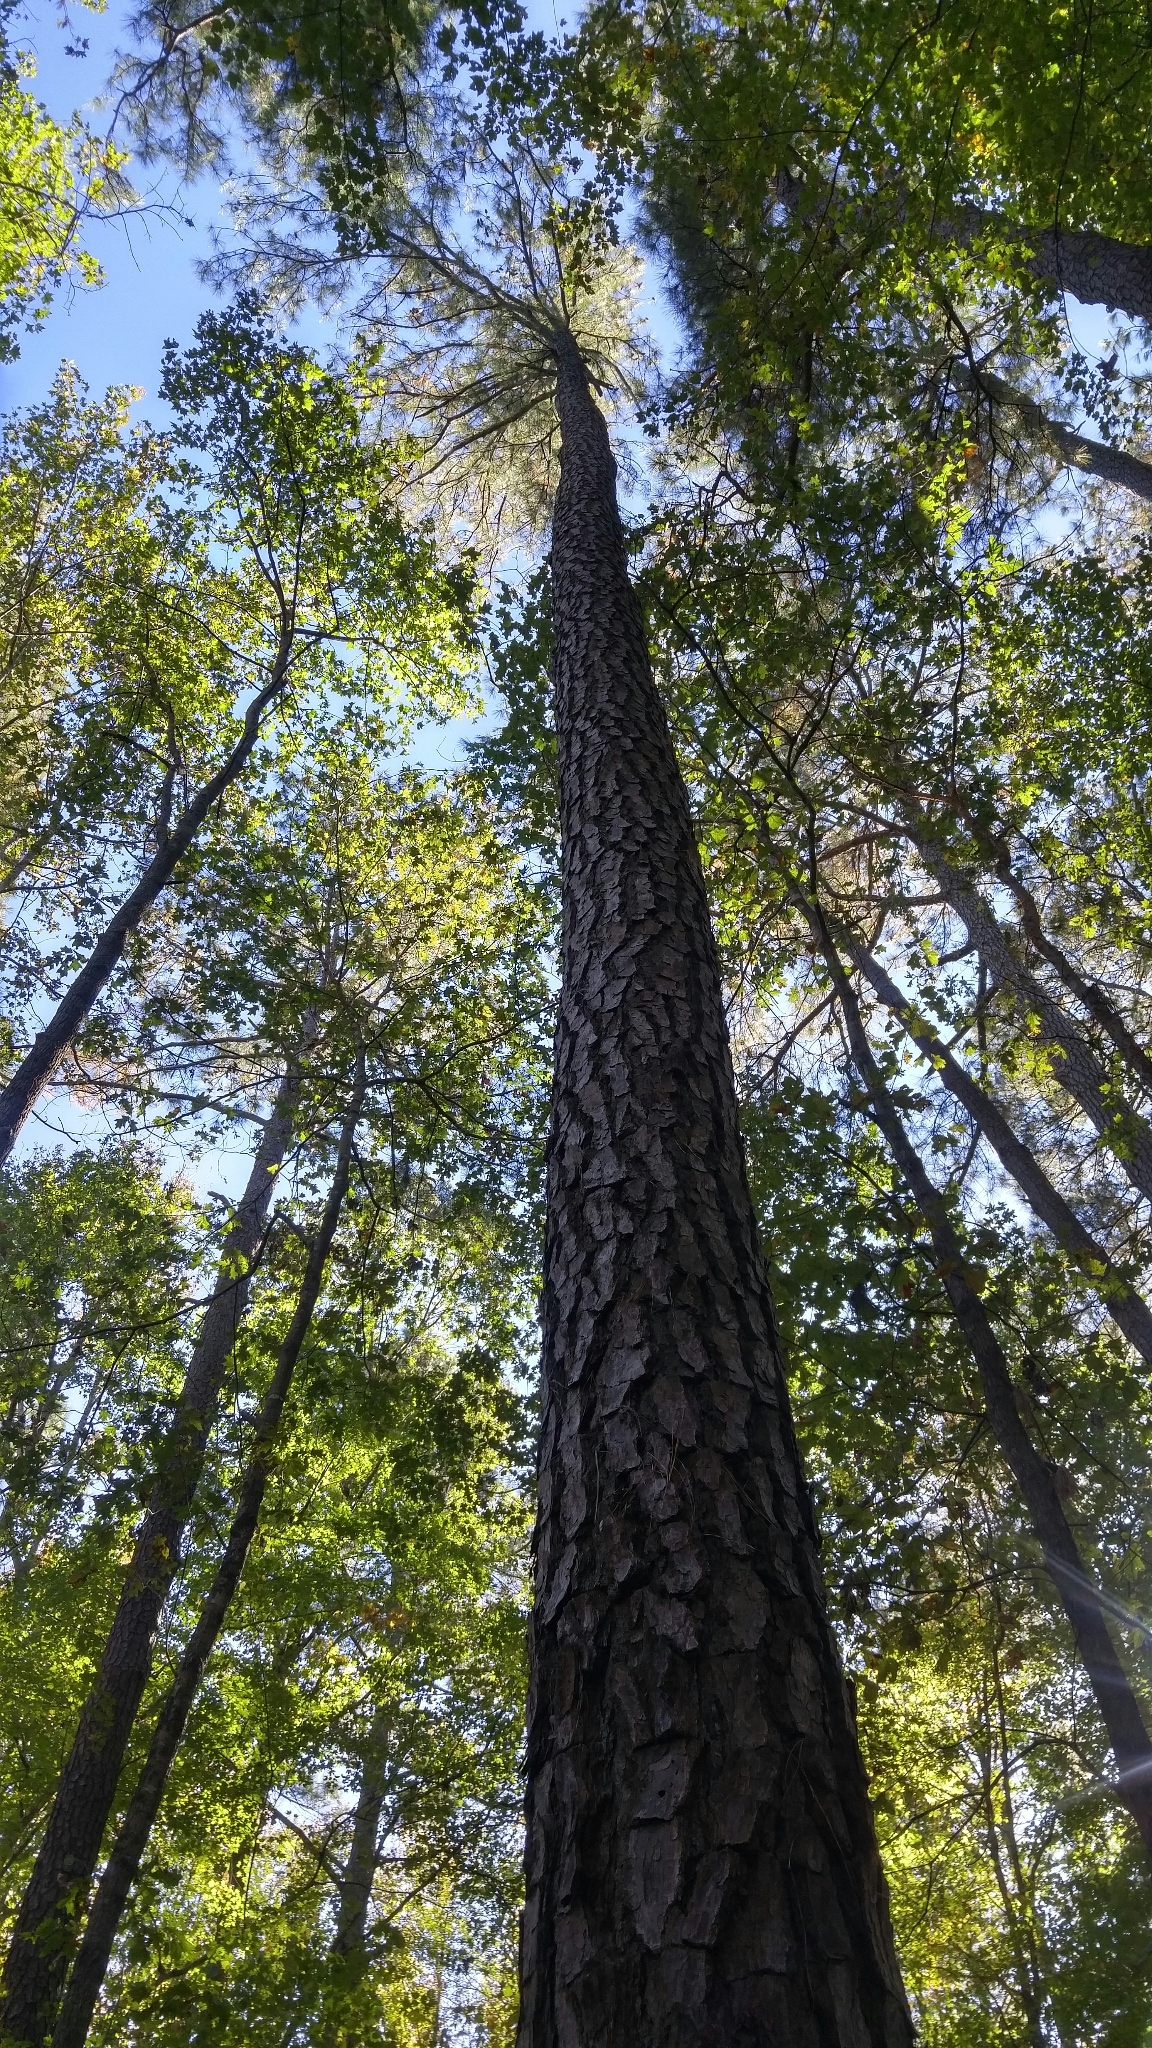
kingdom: Plantae
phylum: Tracheophyta
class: Pinopsida
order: Pinales
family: Pinaceae
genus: Pinus
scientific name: Pinus taeda
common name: Loblolly pine
